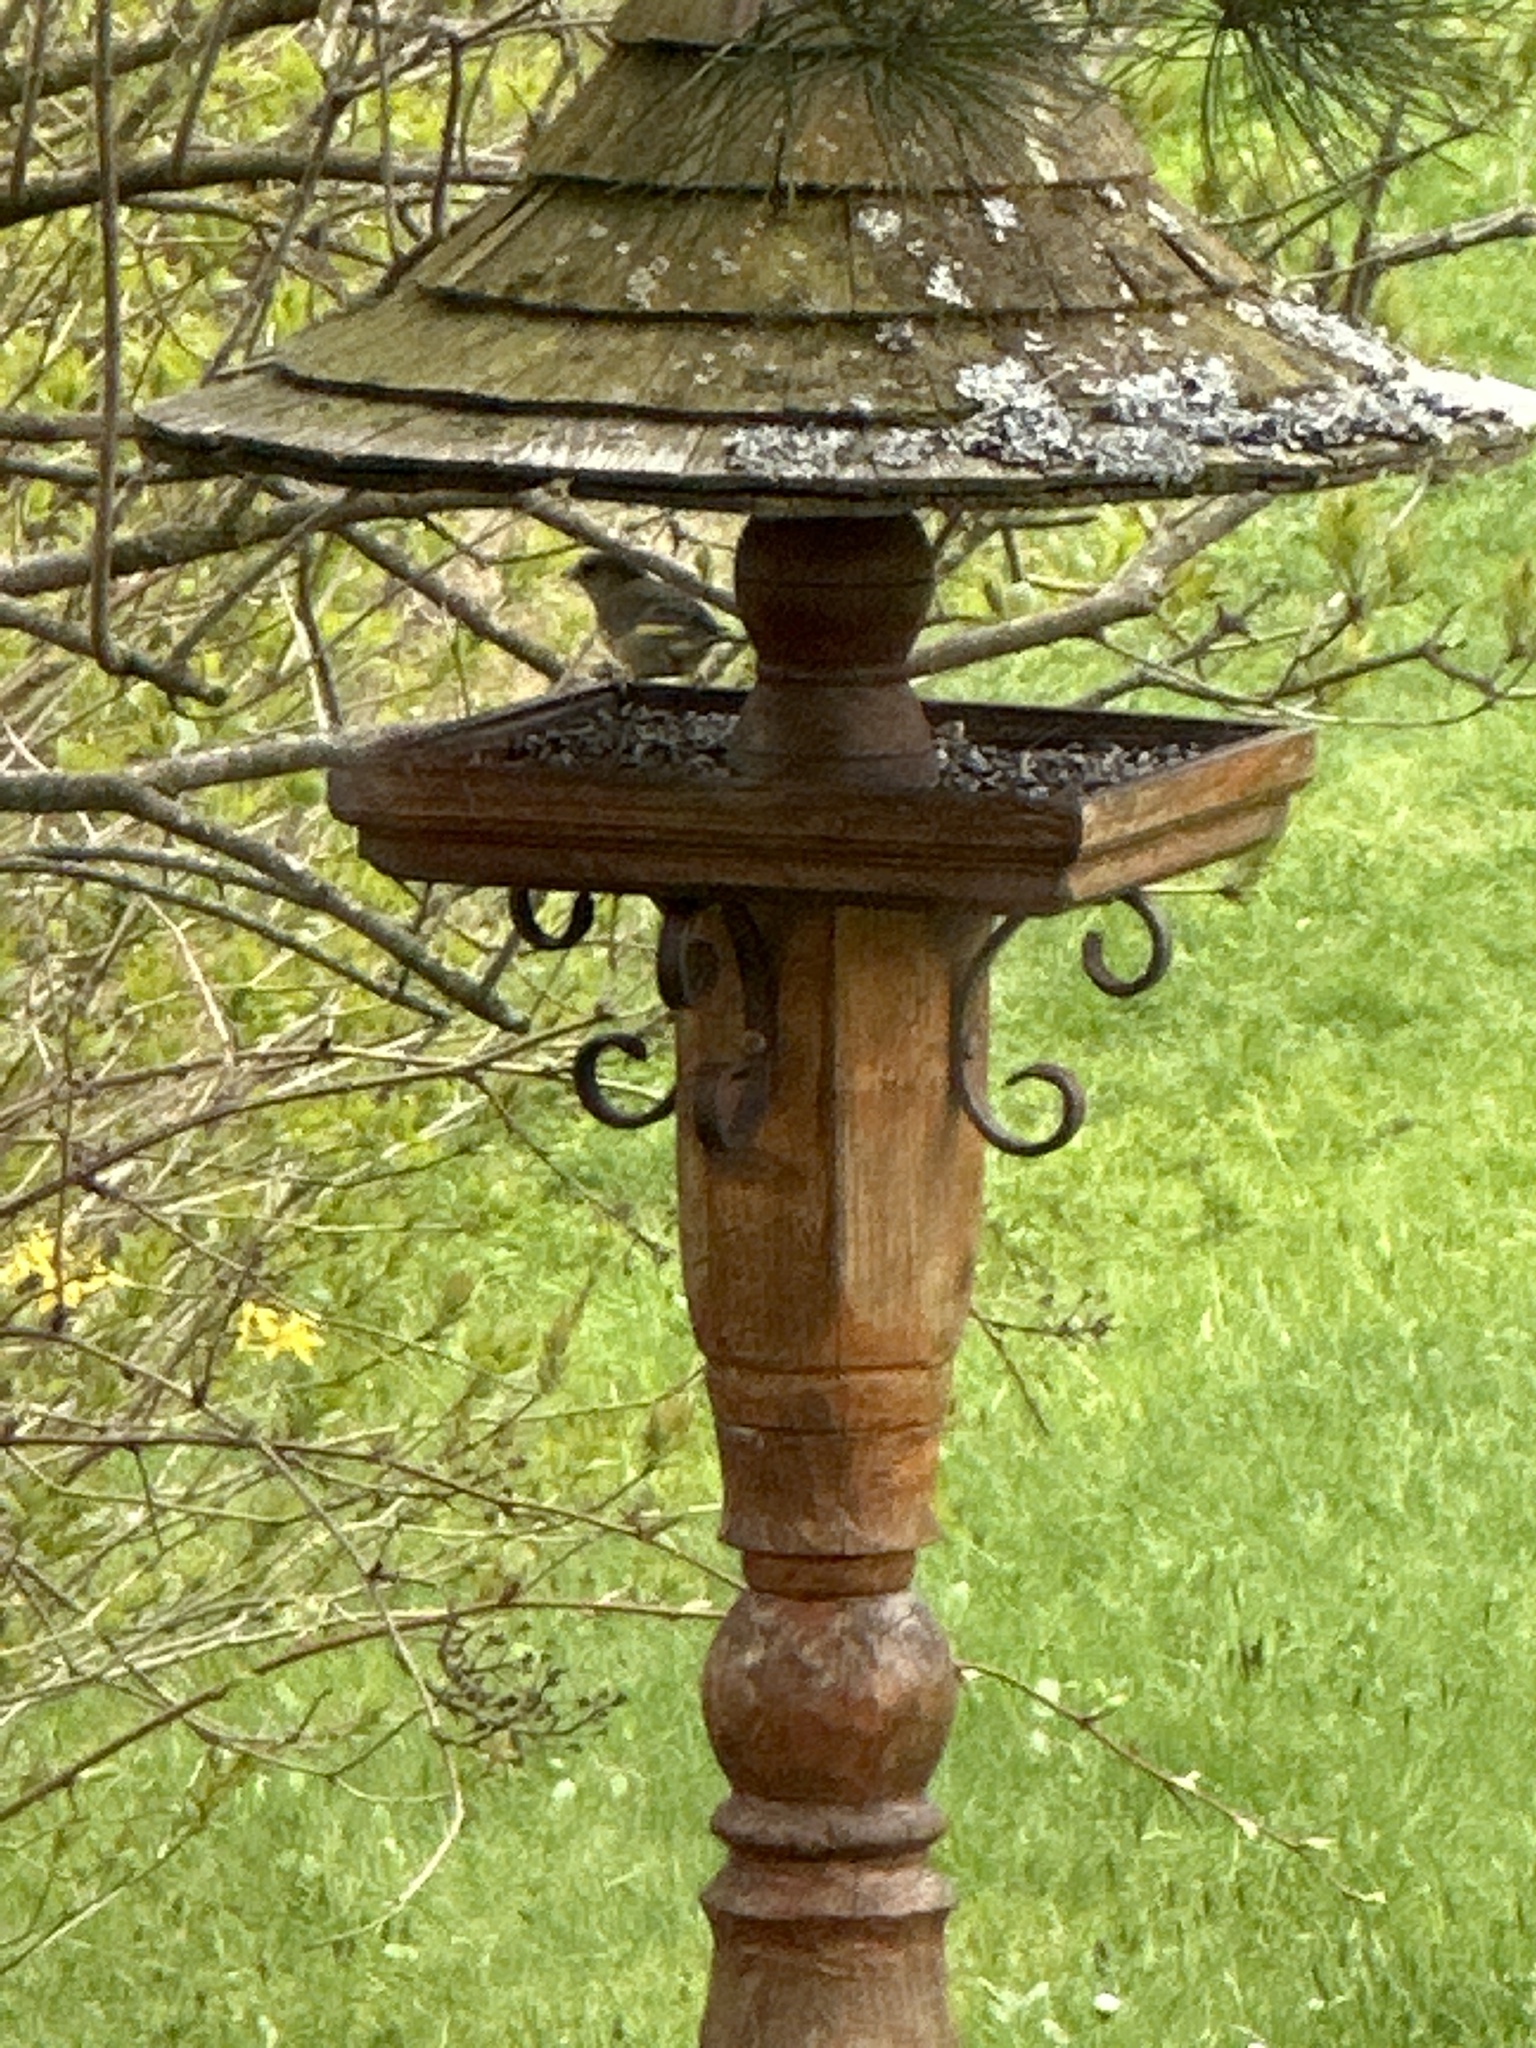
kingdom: Plantae
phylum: Tracheophyta
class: Liliopsida
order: Poales
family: Poaceae
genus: Chloris
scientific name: Chloris chloris
